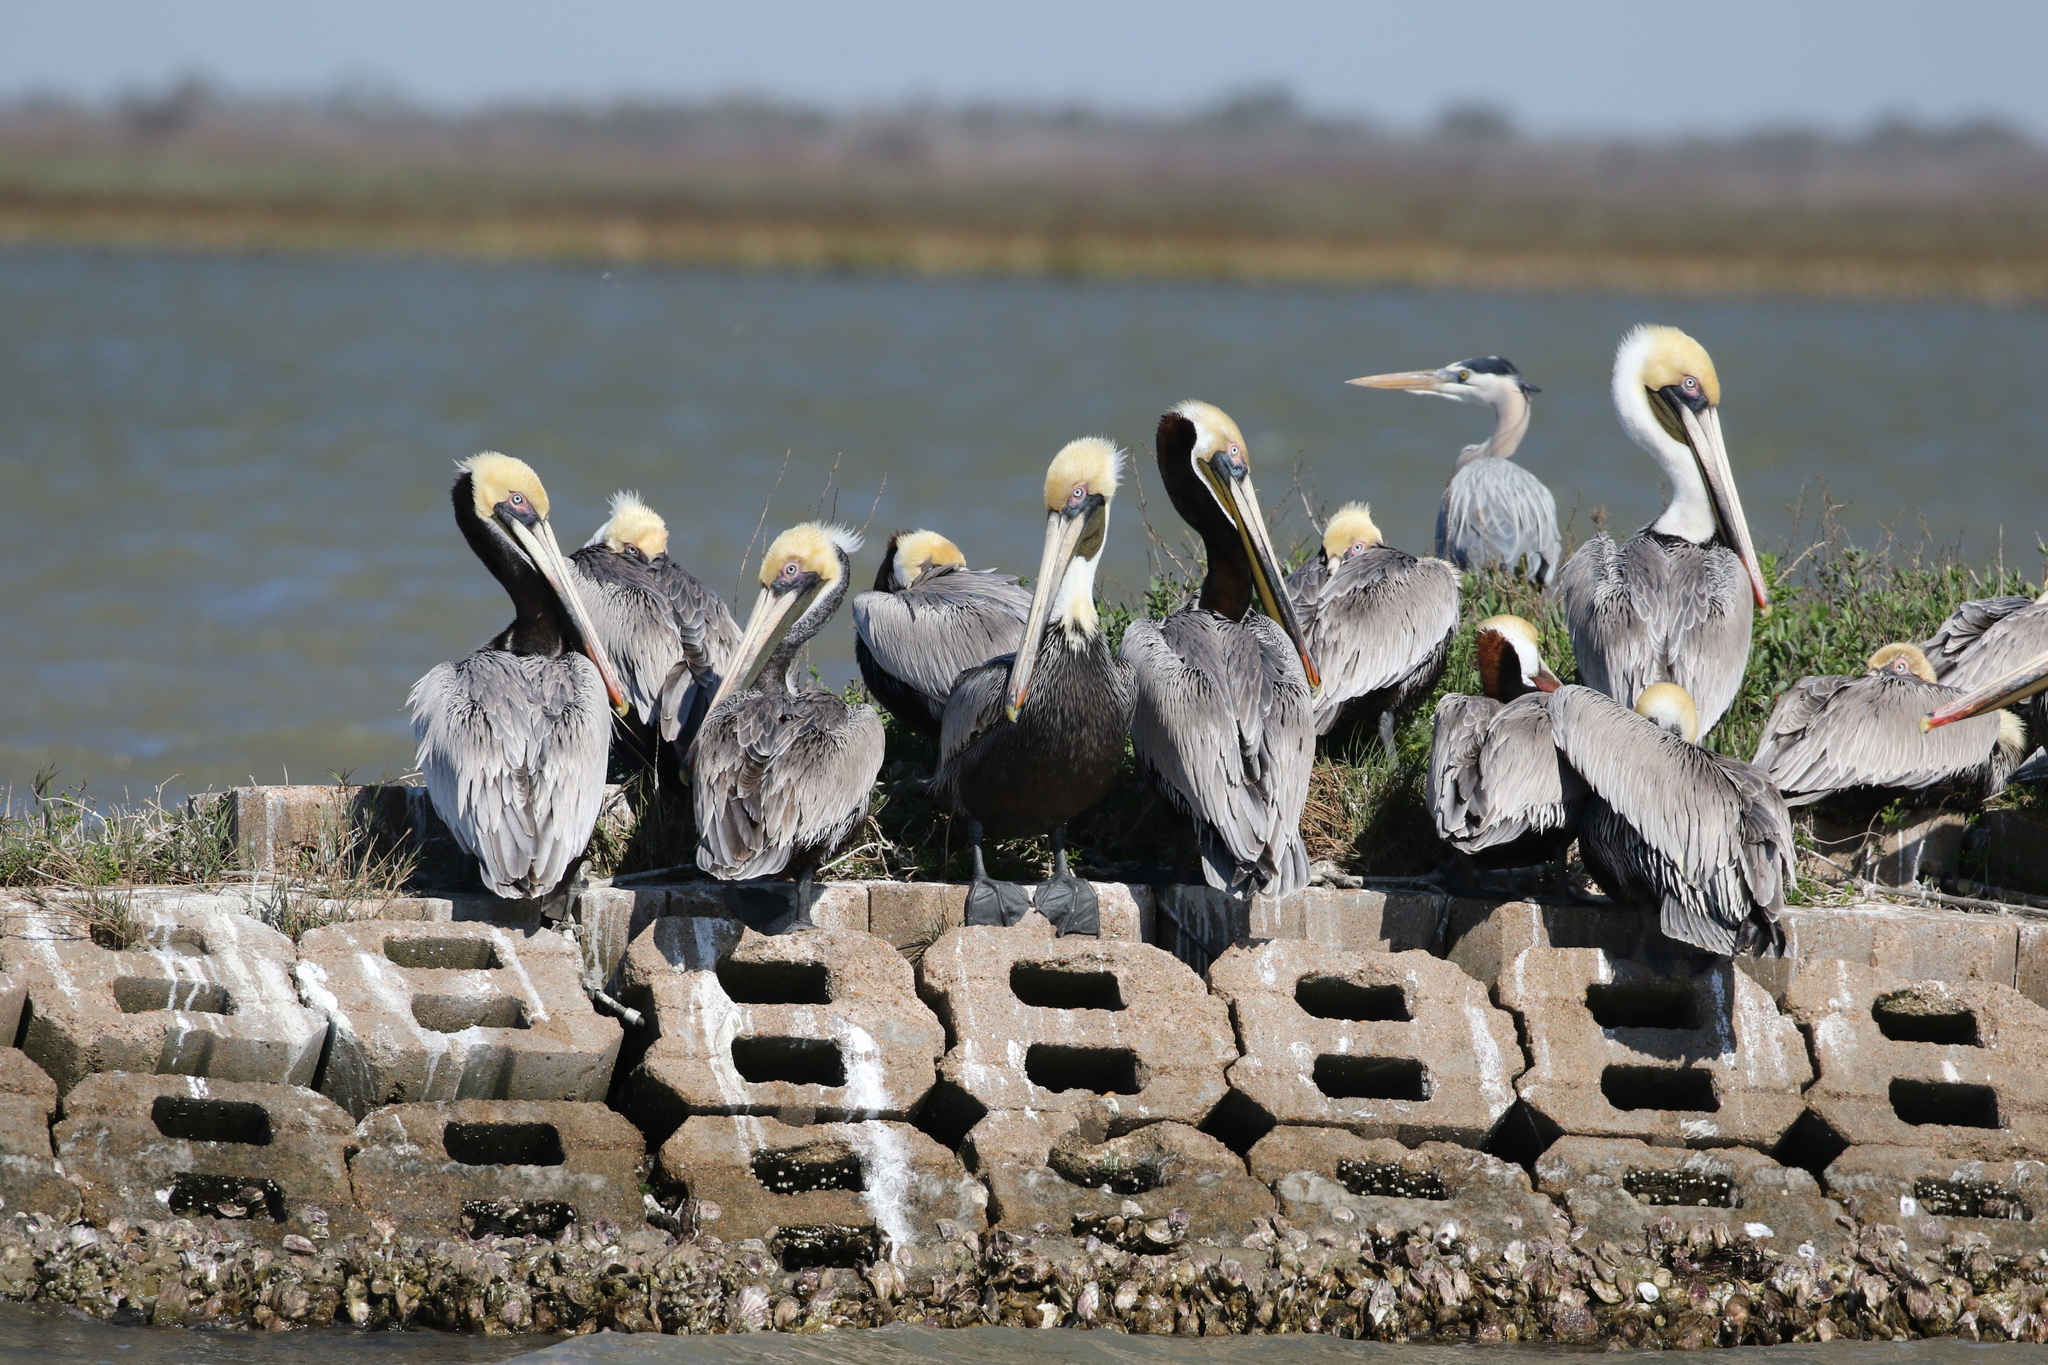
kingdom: Animalia
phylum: Chordata
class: Aves
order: Pelecaniformes
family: Pelecanidae
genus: Pelecanus
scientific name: Pelecanus occidentalis
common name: Brown pelican
